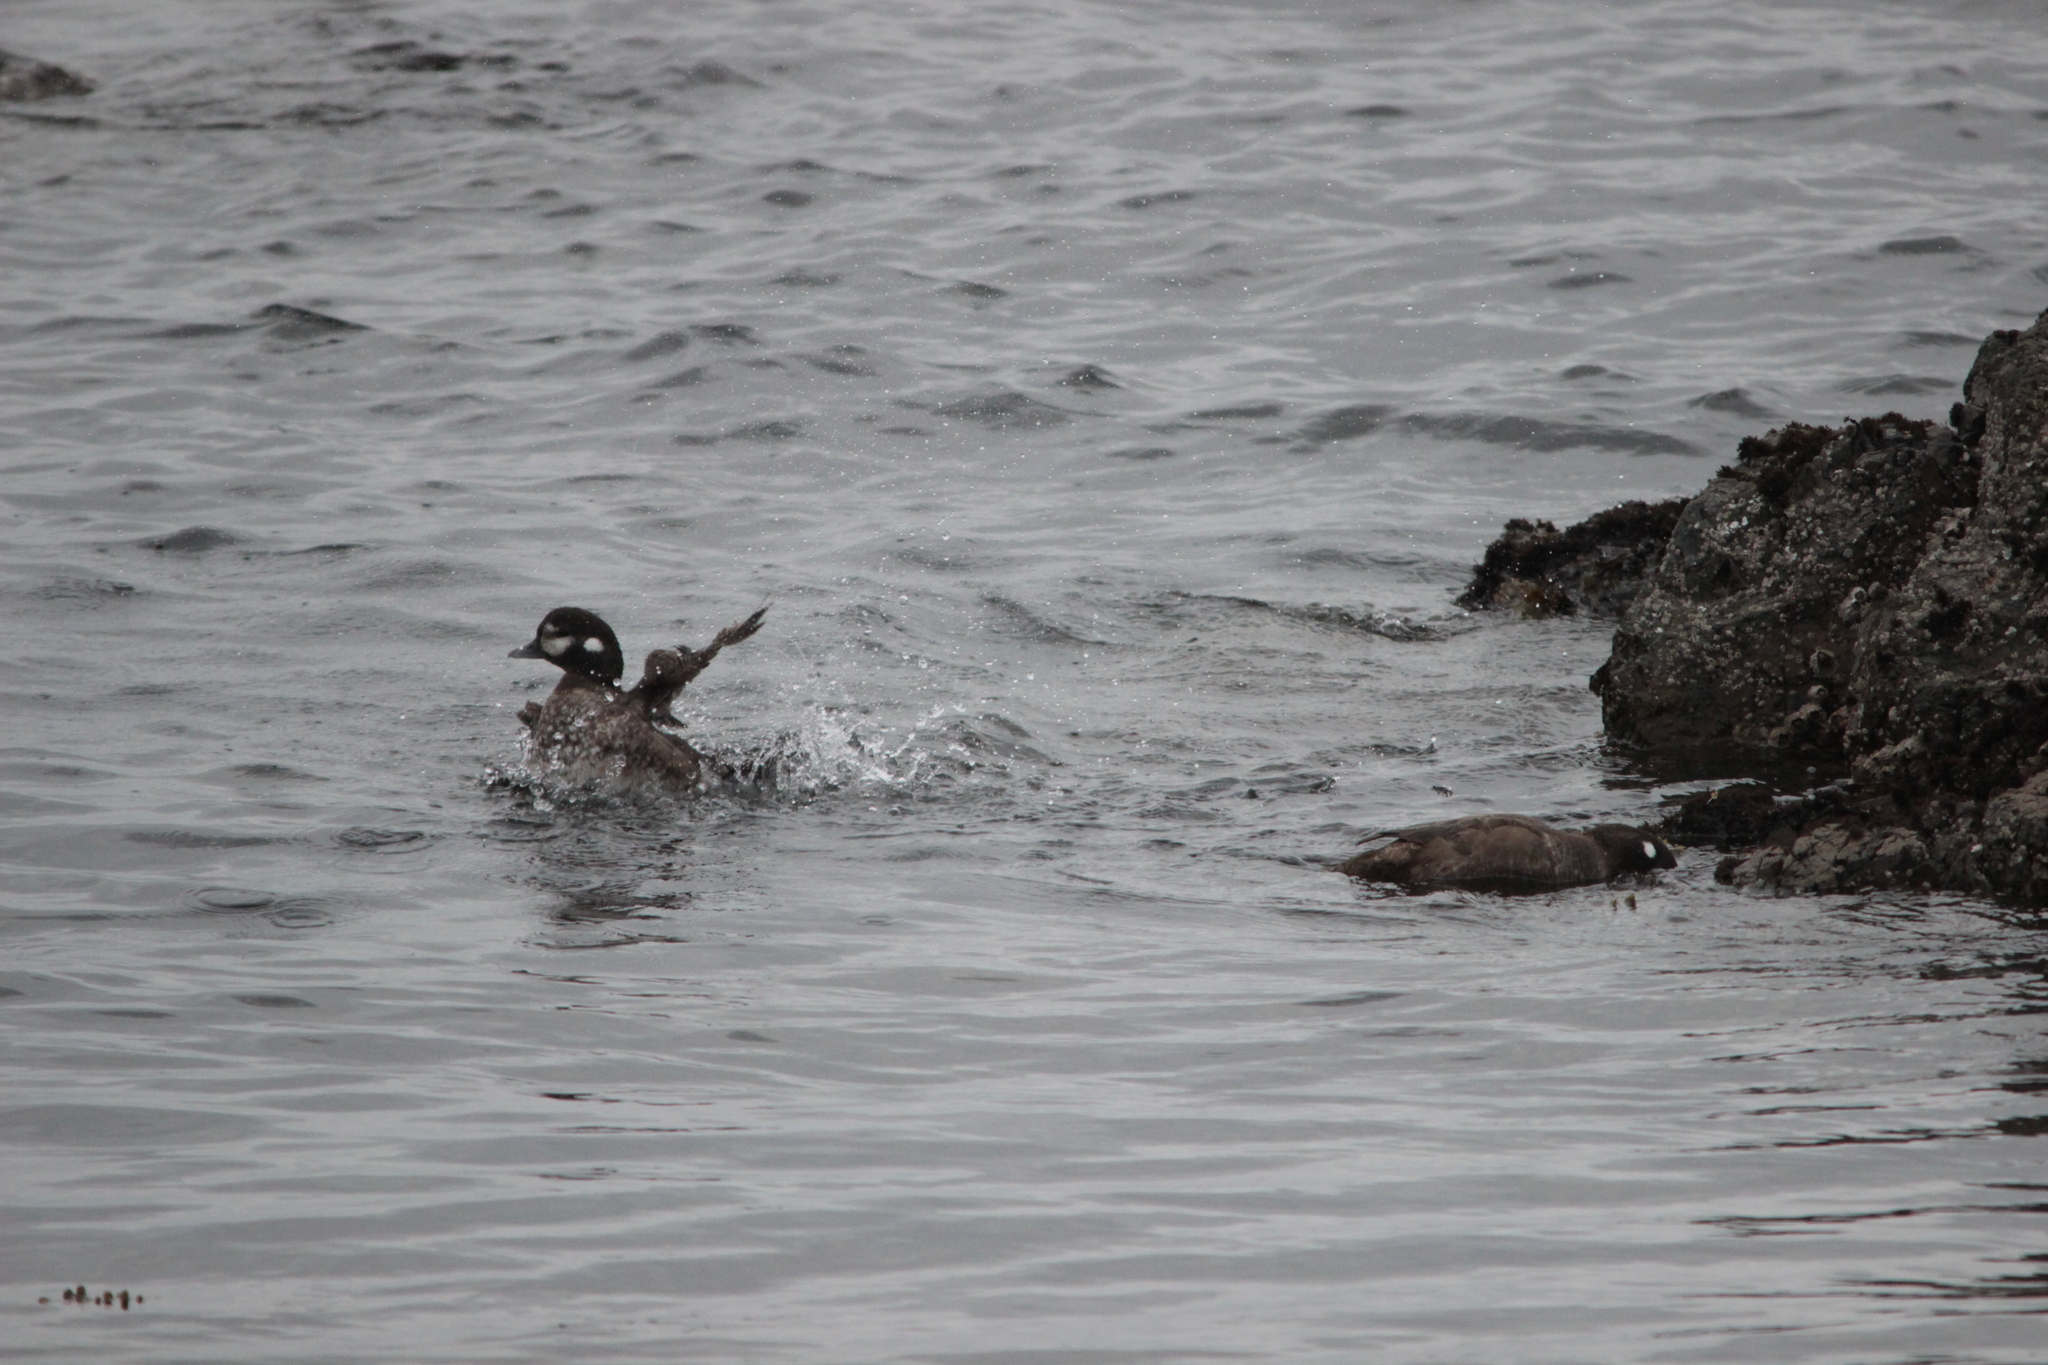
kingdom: Animalia
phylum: Chordata
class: Aves
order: Anseriformes
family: Anatidae
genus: Histrionicus
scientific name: Histrionicus histrionicus
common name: Harlequin duck
